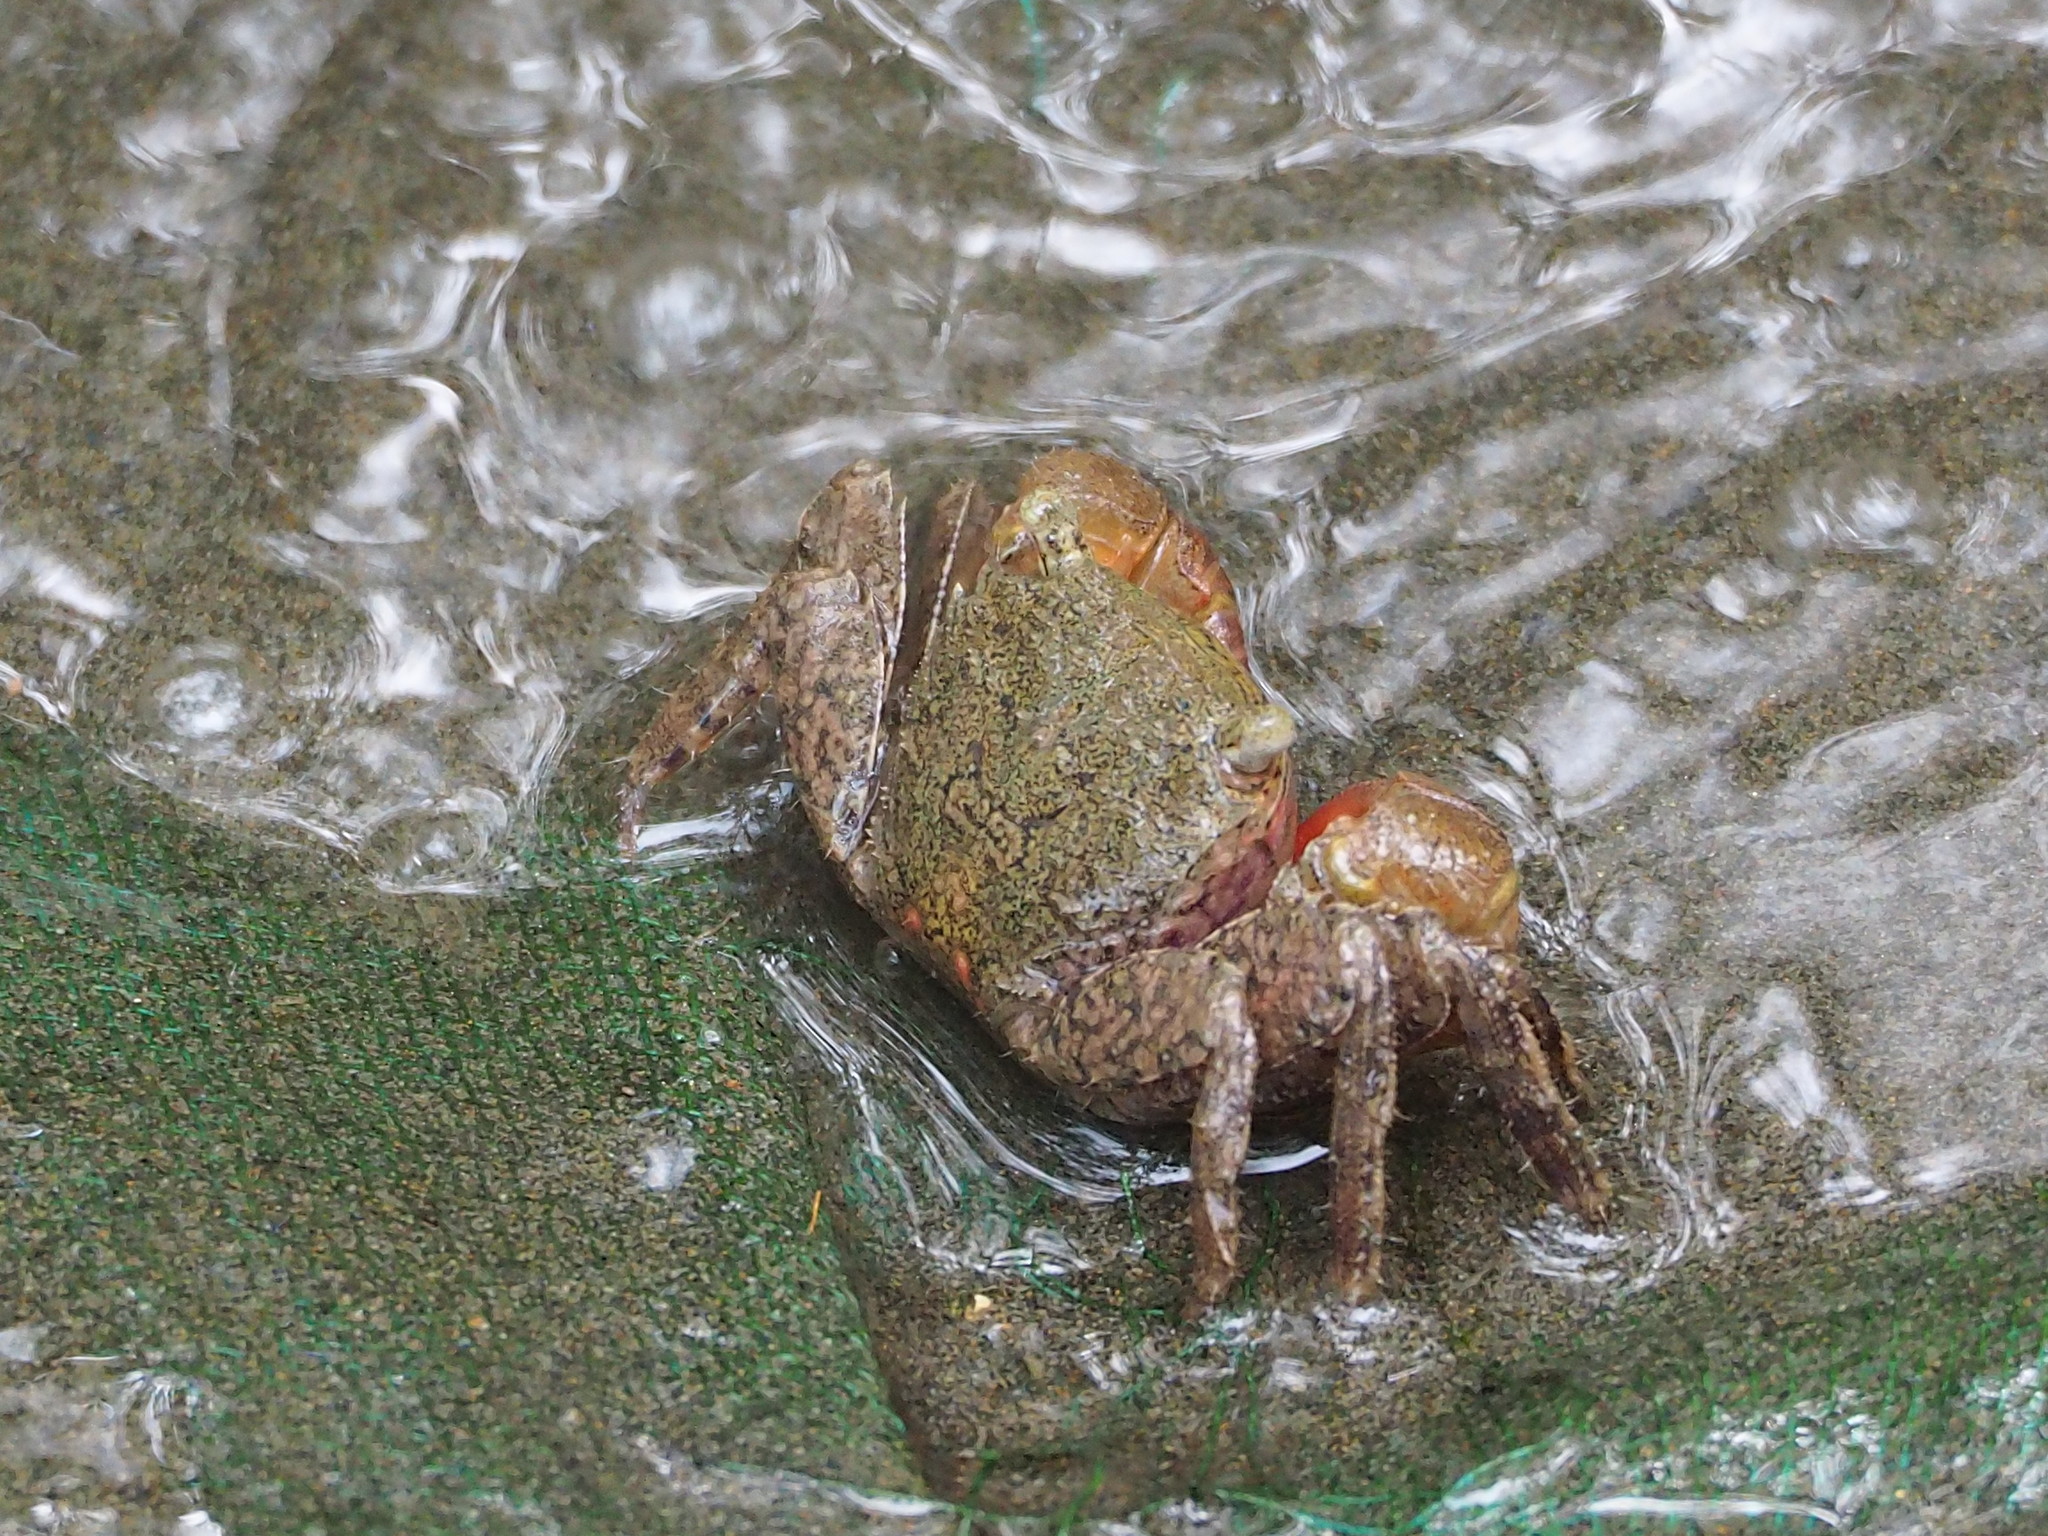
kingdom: Animalia
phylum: Arthropoda
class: Malacostraca
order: Decapoda
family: Sesarmidae
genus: Parasesarma
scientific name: Parasesarma bidens
